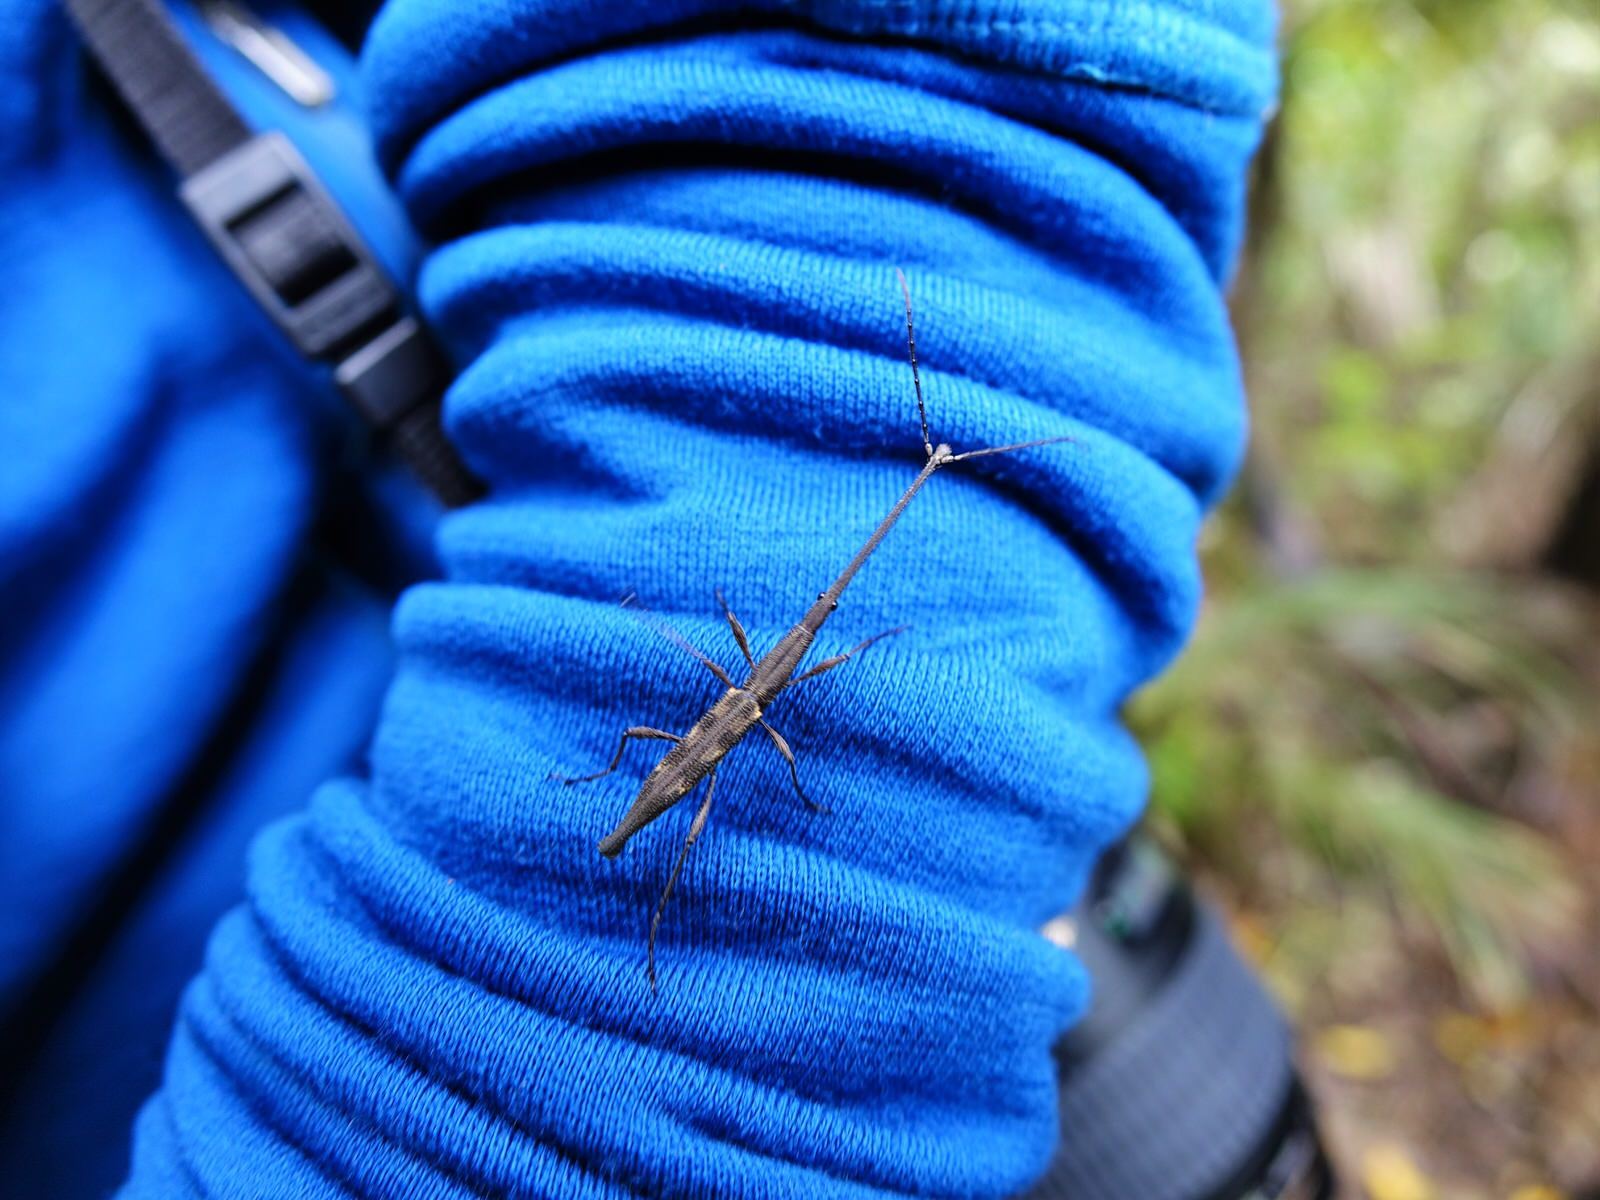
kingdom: Animalia
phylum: Arthropoda
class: Insecta
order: Coleoptera
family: Brentidae
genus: Lasiorhynchus
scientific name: Lasiorhynchus barbicornis
